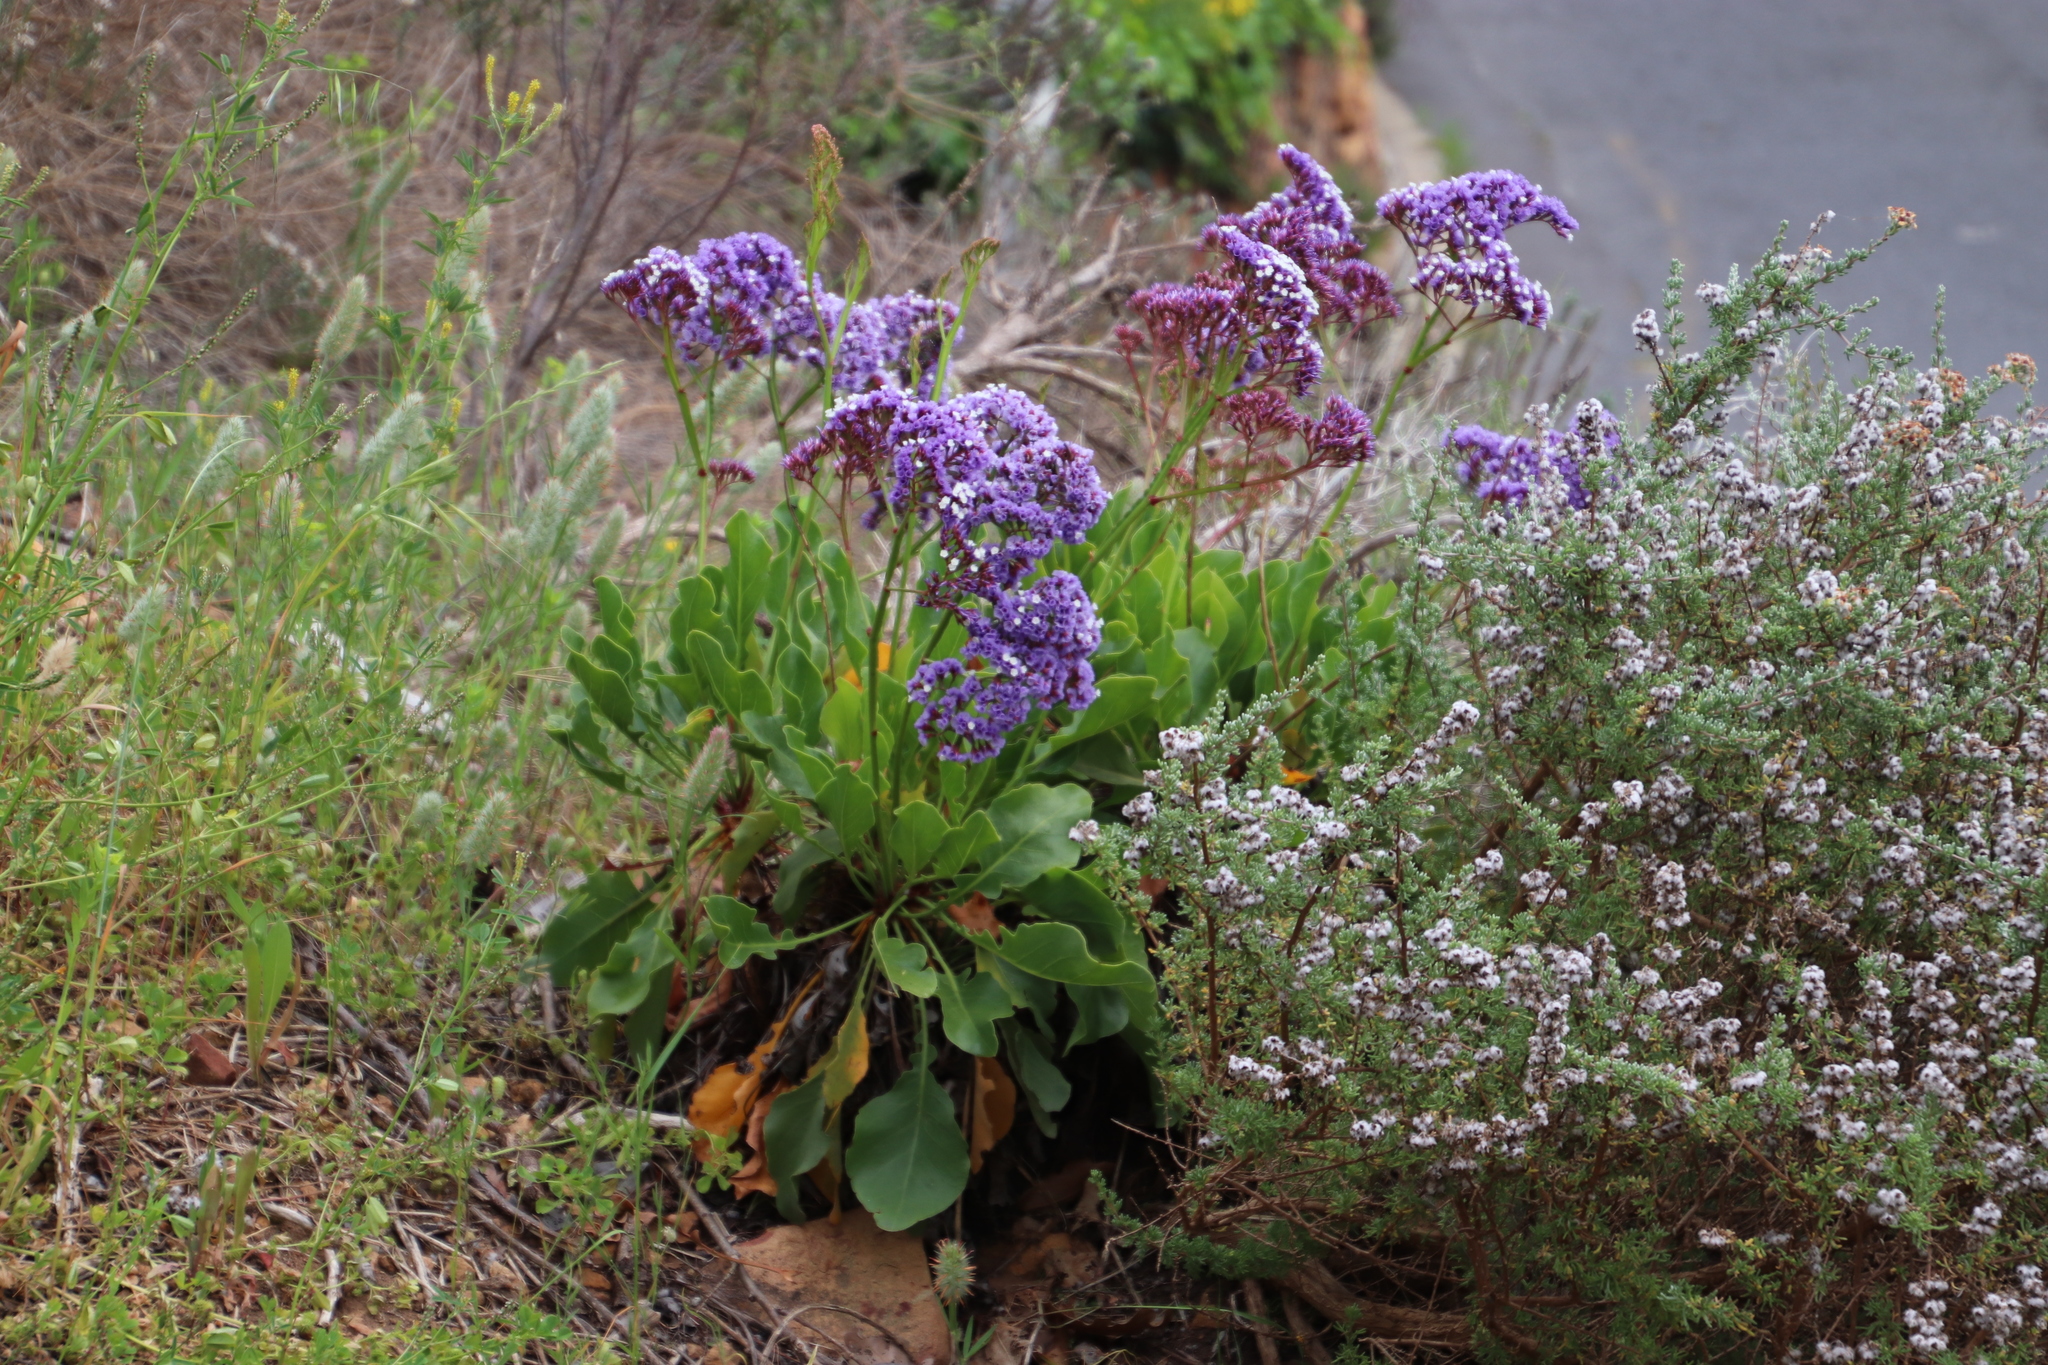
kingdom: Plantae
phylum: Tracheophyta
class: Magnoliopsida
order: Caryophyllales
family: Plumbaginaceae
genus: Limonium
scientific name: Limonium perezii
